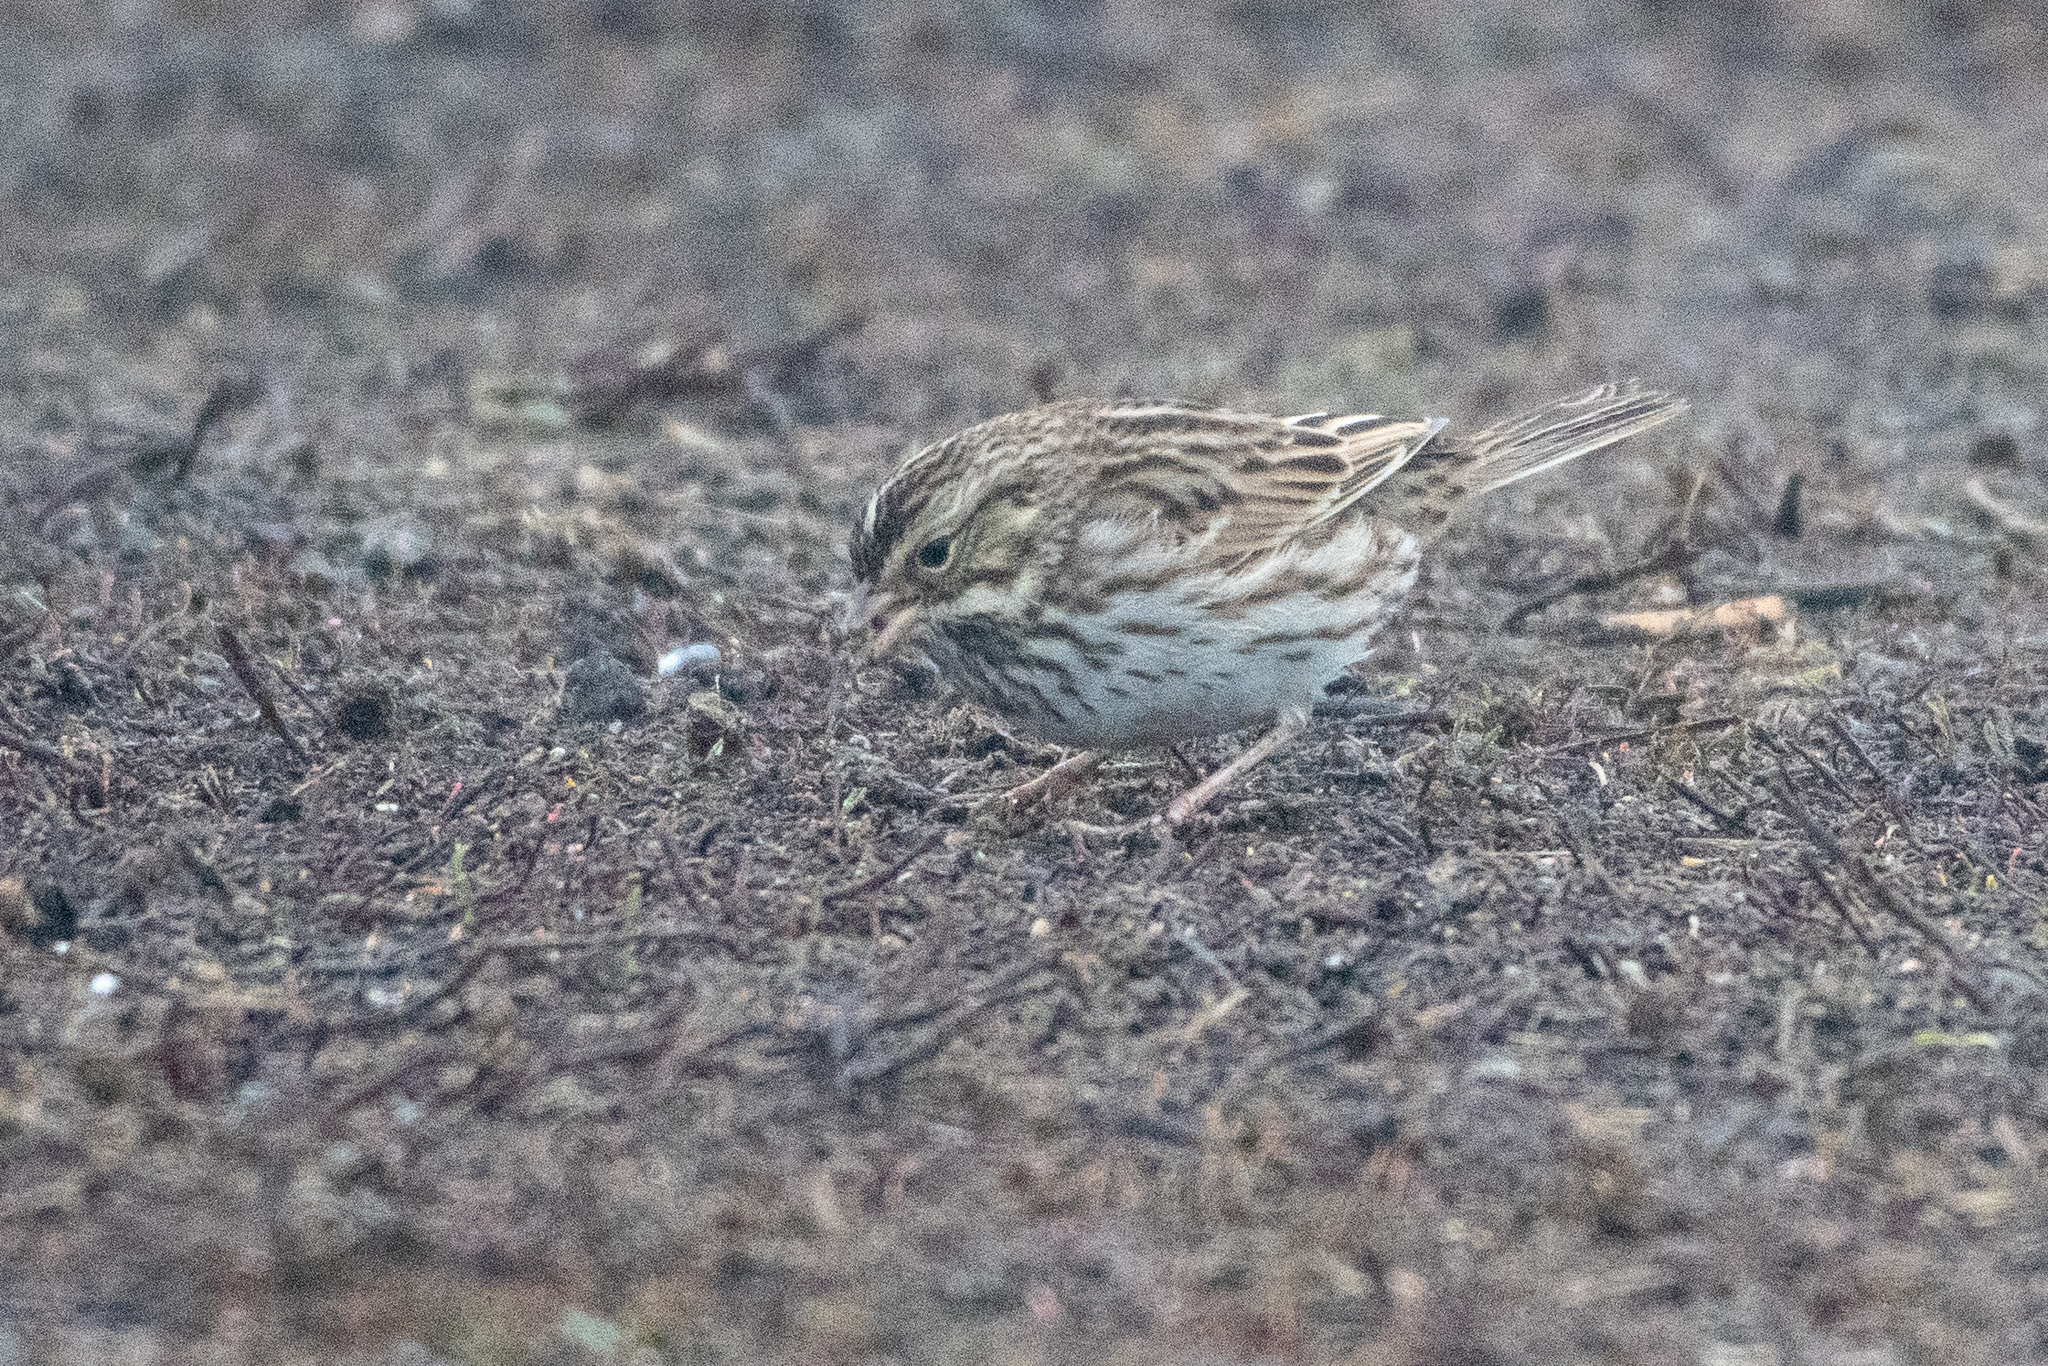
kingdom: Animalia
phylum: Chordata
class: Aves
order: Passeriformes
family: Passerellidae
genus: Passerculus
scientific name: Passerculus sandwichensis
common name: Savannah sparrow
